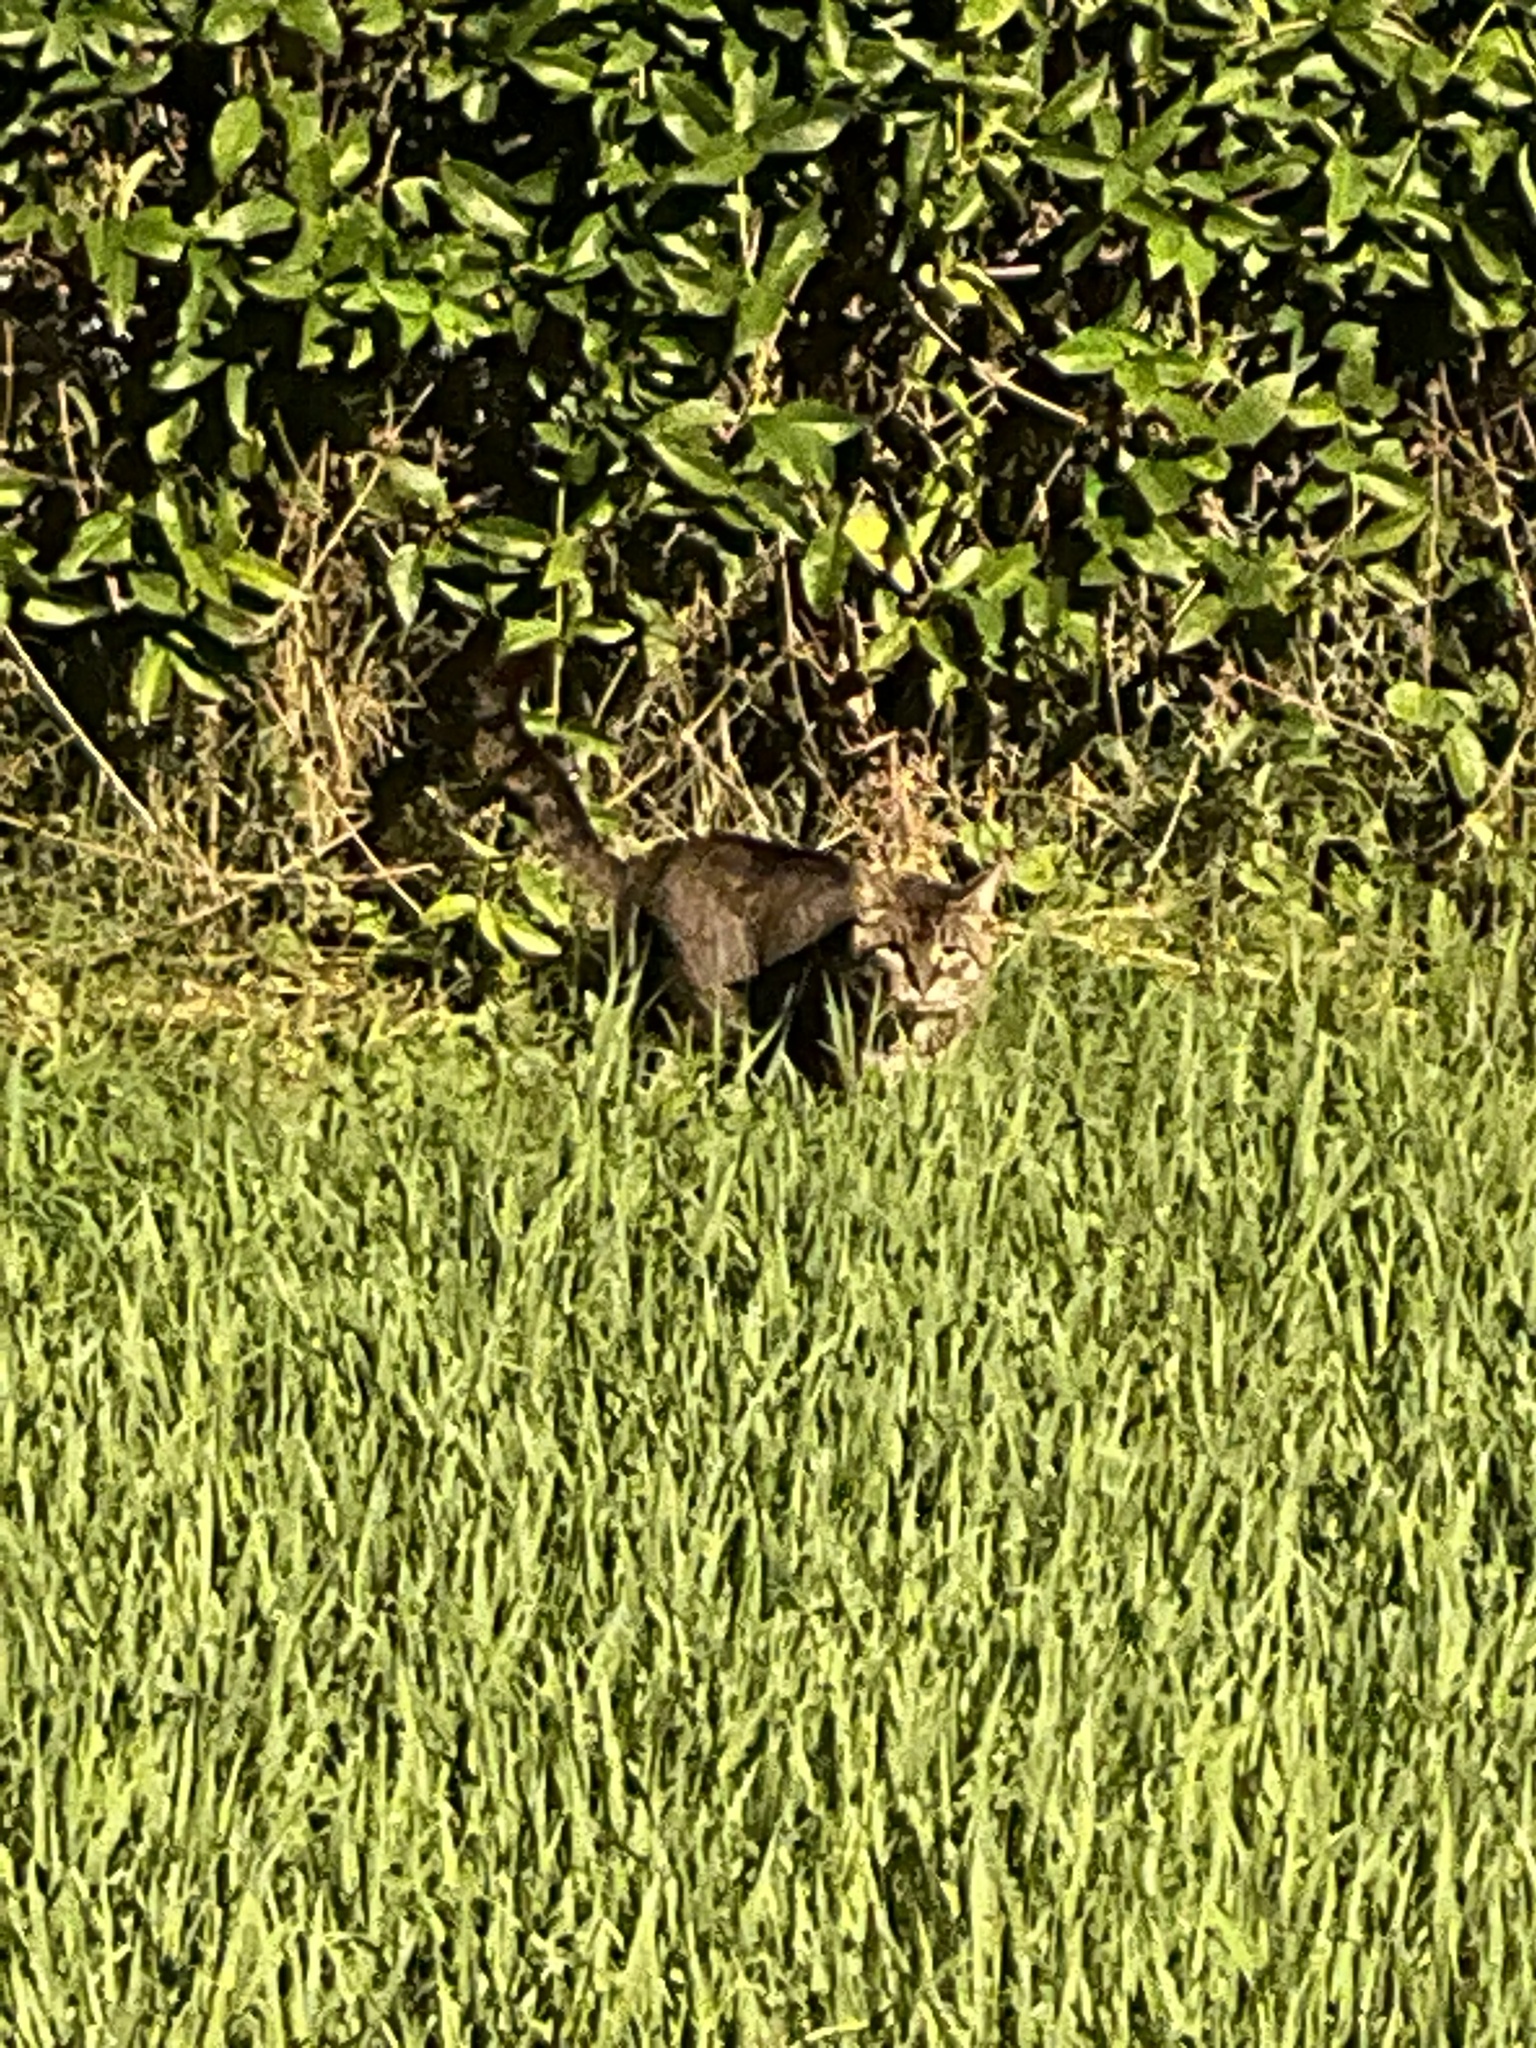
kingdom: Animalia
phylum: Chordata
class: Mammalia
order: Carnivora
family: Felidae
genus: Felis
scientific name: Felis catus
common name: Domestic cat
